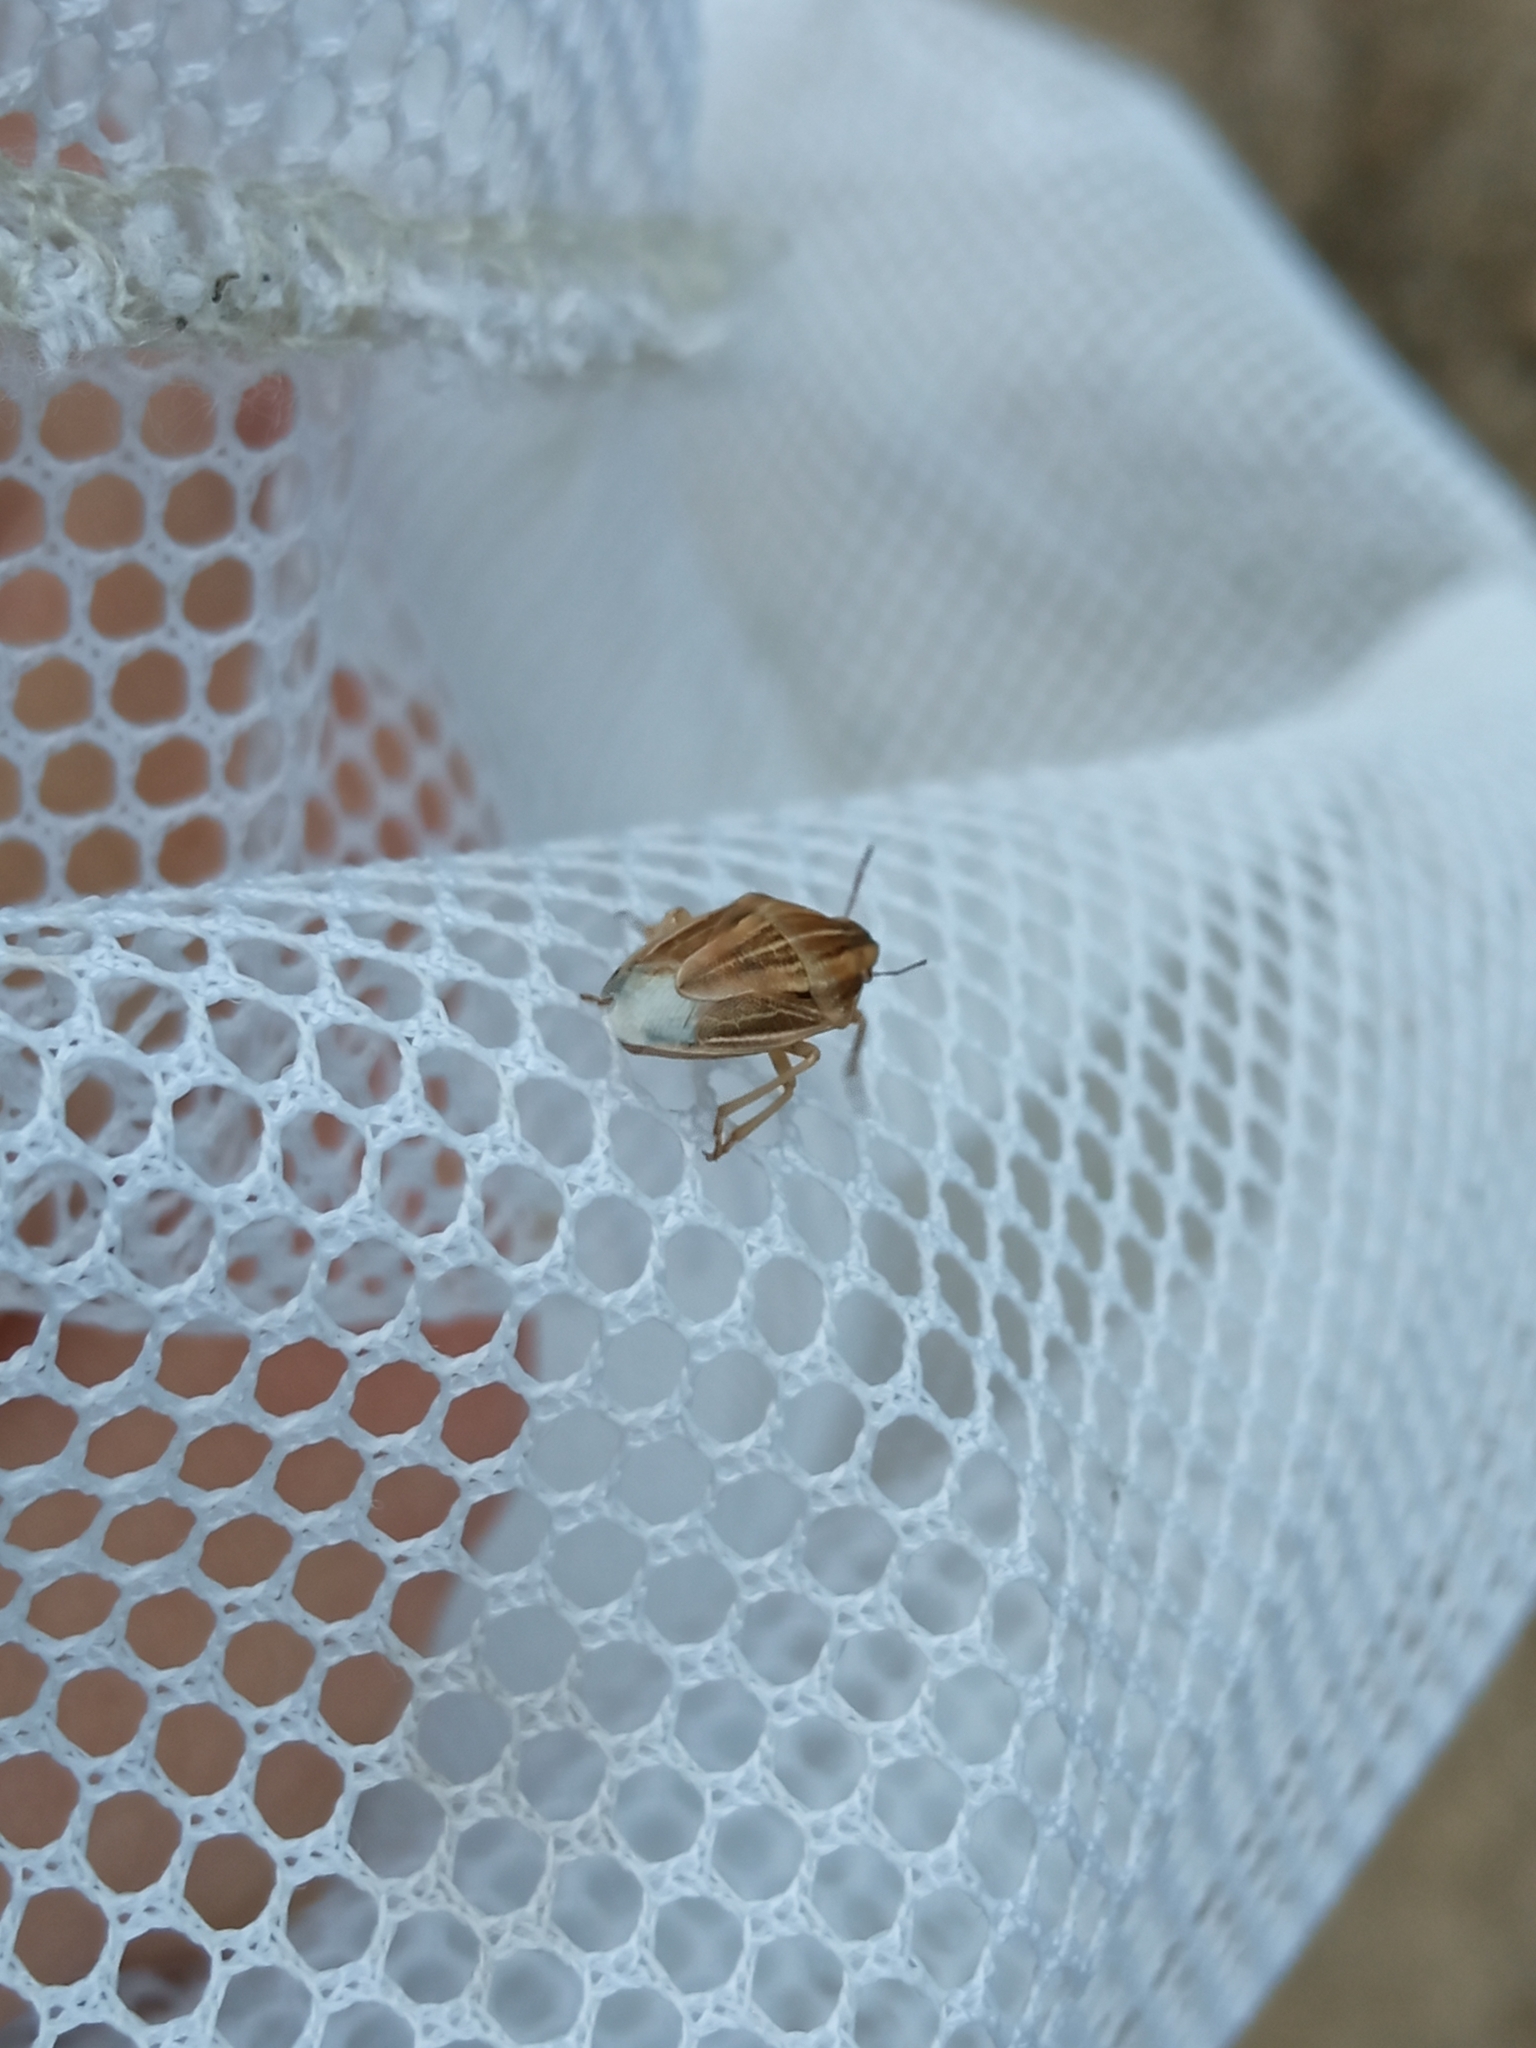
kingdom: Animalia
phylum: Arthropoda
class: Insecta
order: Hemiptera
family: Pentatomidae
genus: Aelia
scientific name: Aelia acuminata
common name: Bishop's mitre
